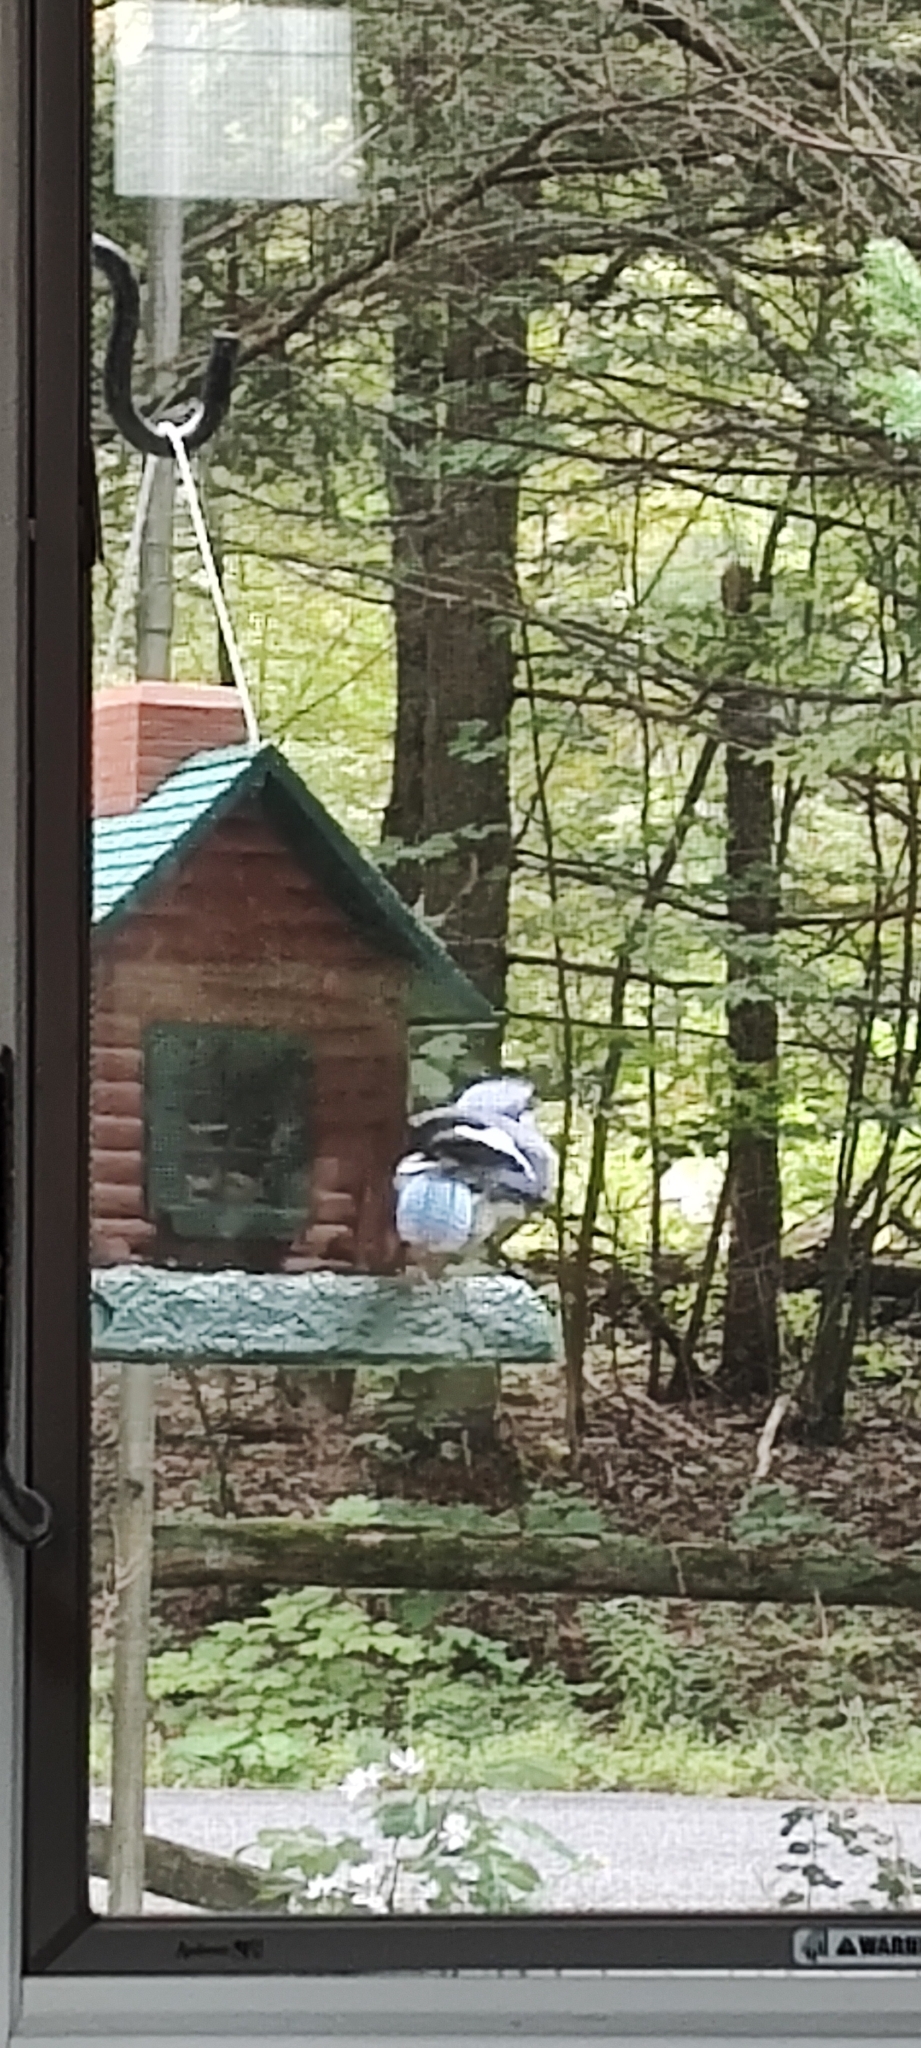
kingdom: Animalia
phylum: Chordata
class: Aves
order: Passeriformes
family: Corvidae
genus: Cyanocitta
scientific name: Cyanocitta cristata
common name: Blue jay
